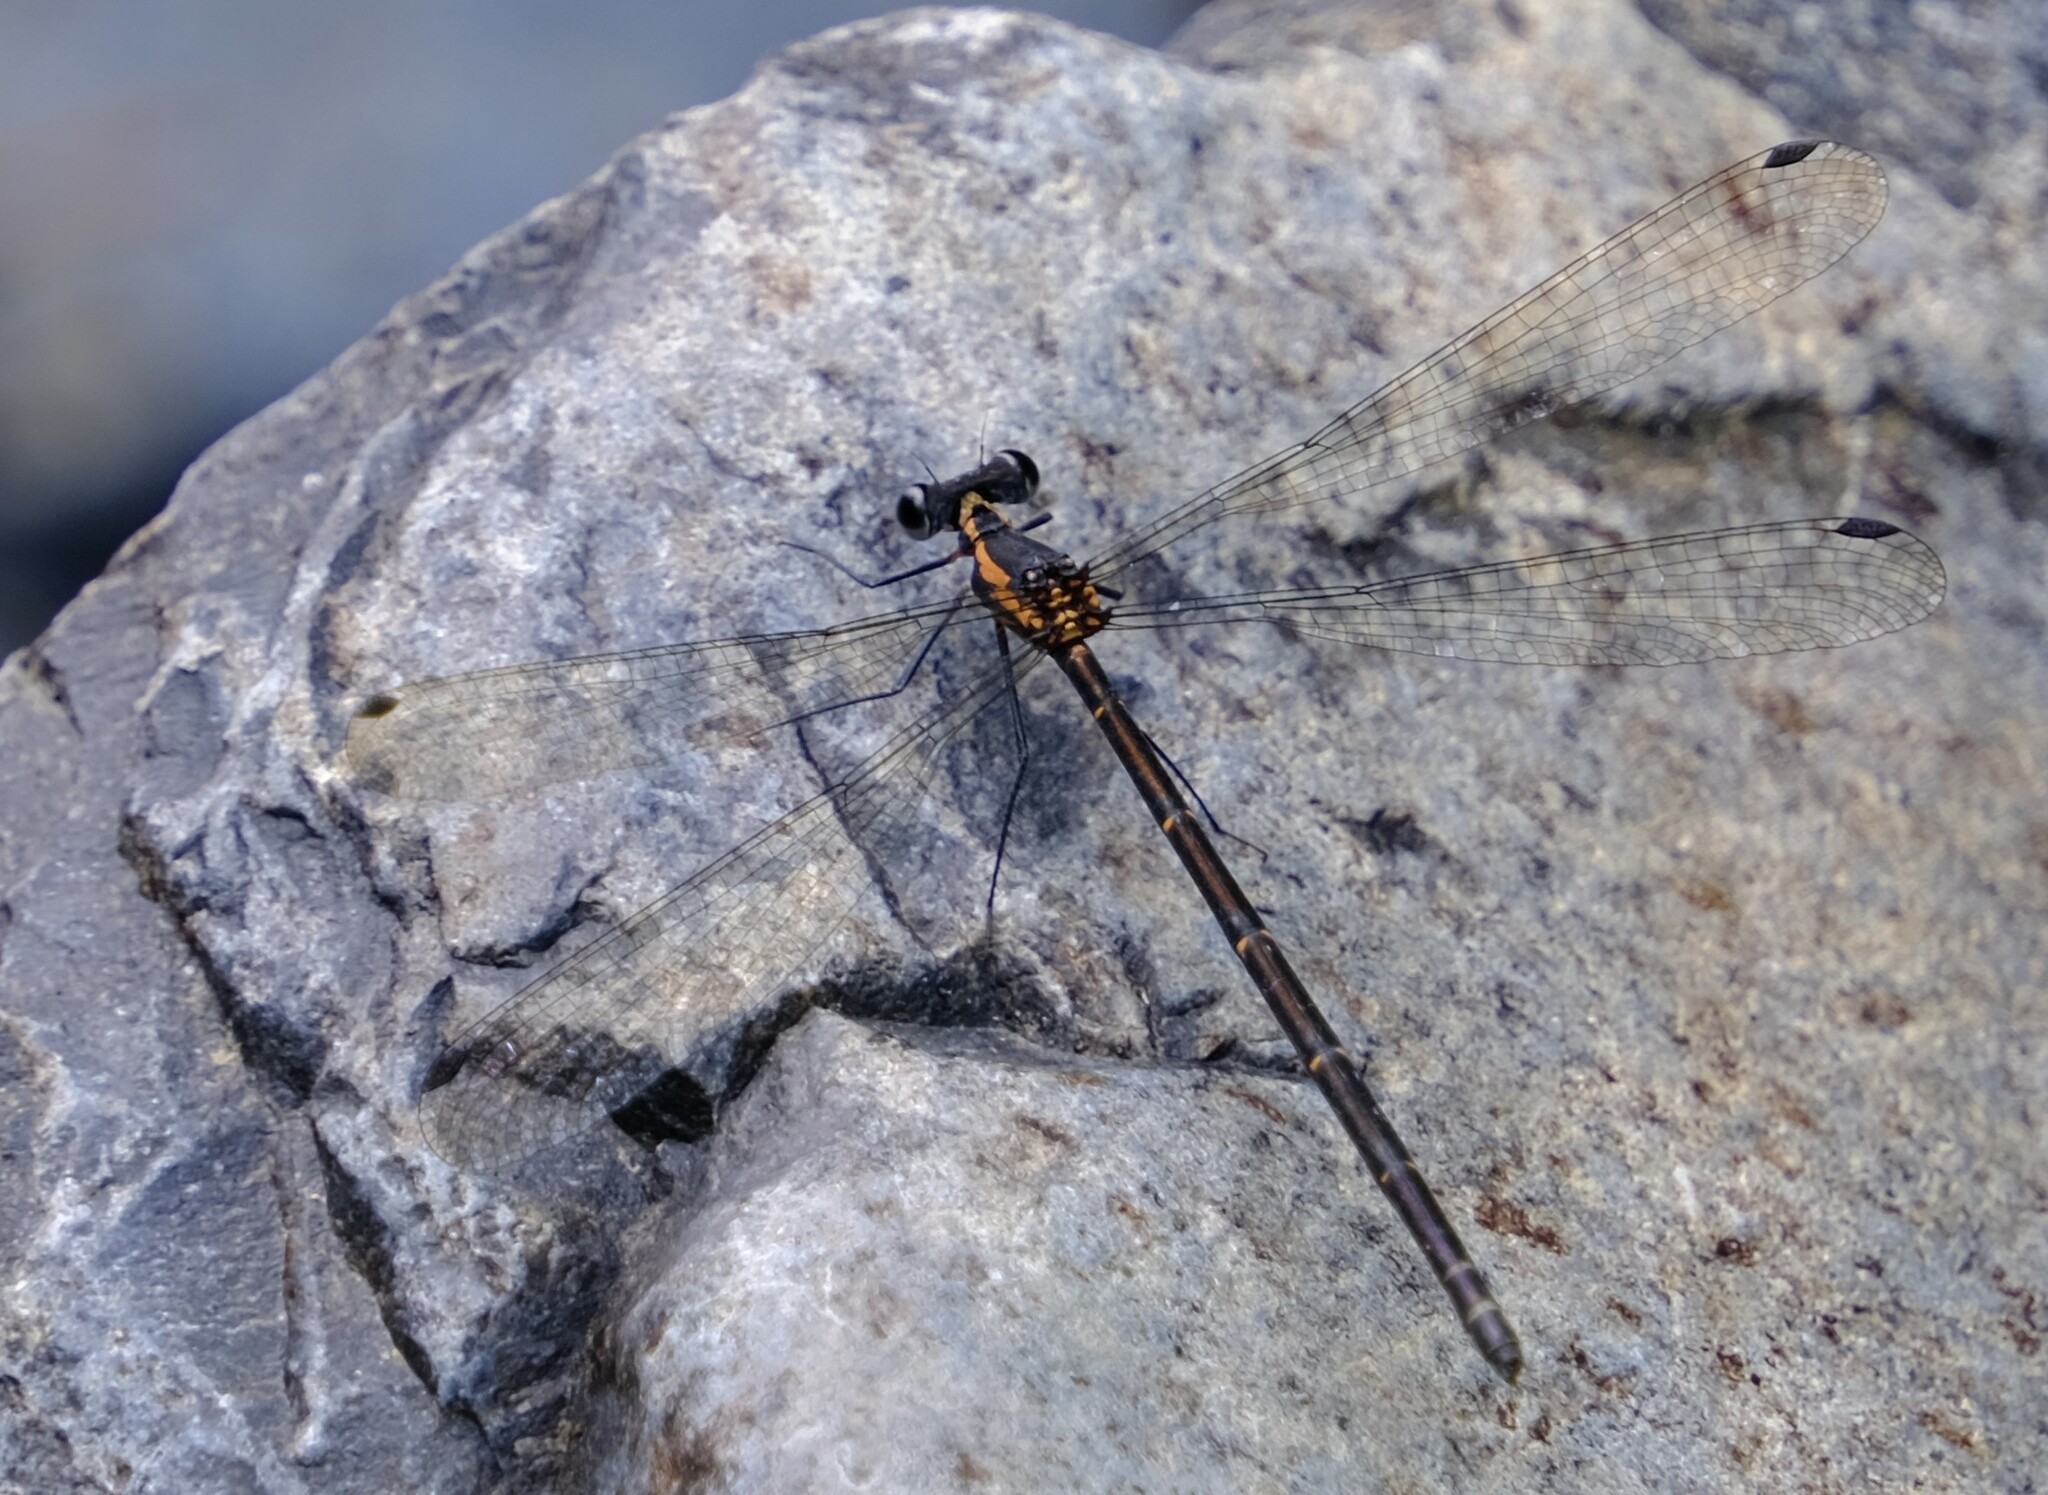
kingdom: Animalia
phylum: Arthropoda
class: Insecta
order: Odonata
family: Argiolestidae
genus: Austroargiolestes
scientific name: Austroargiolestes icteromelas
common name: Common flatwing
